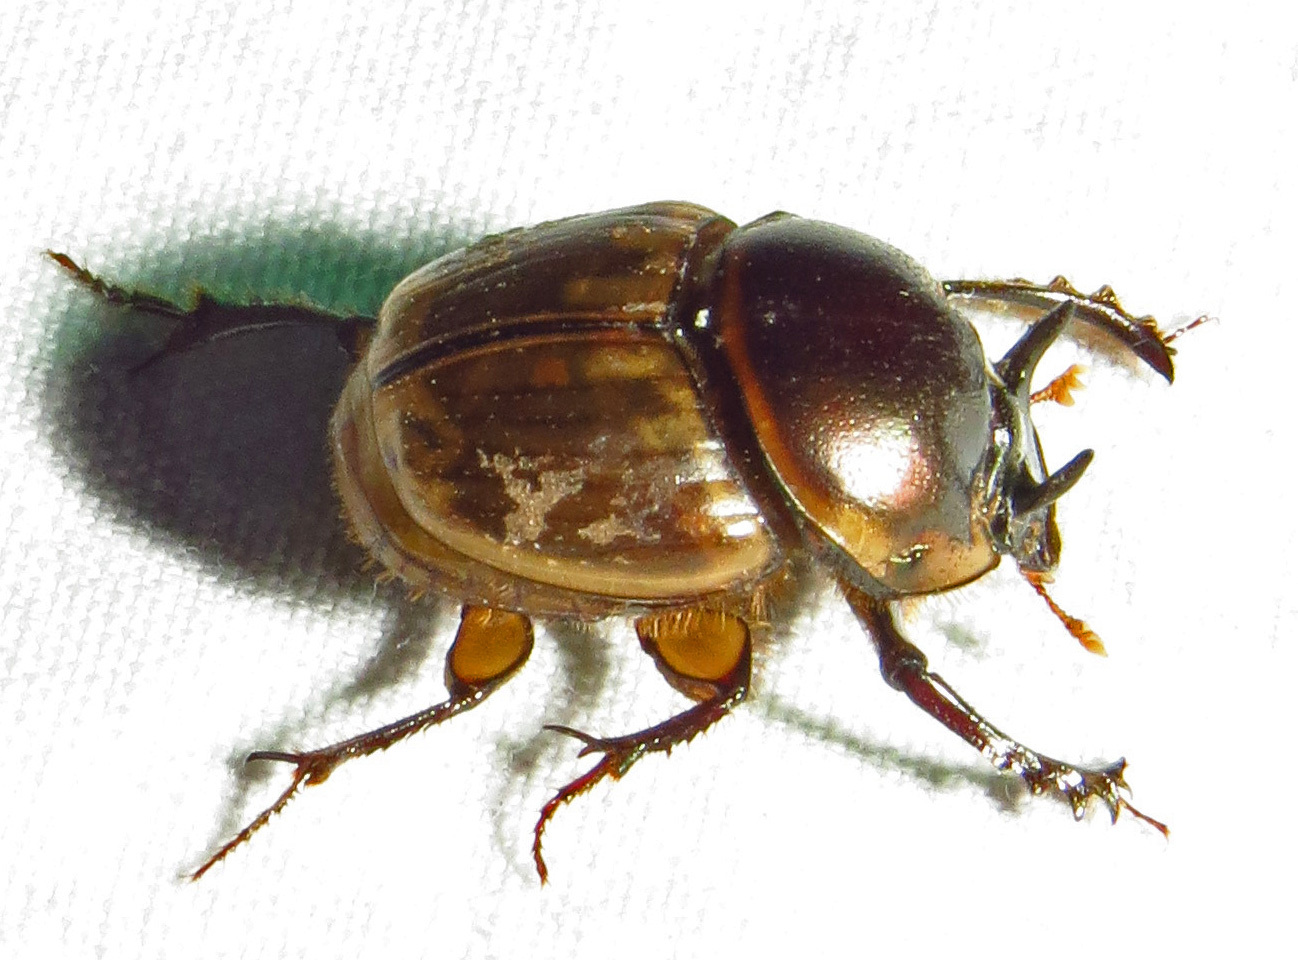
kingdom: Animalia
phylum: Arthropoda
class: Insecta
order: Coleoptera
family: Scarabaeidae
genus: Digitonthophagus
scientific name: Digitonthophagus gazella
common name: Brown dung beetle
